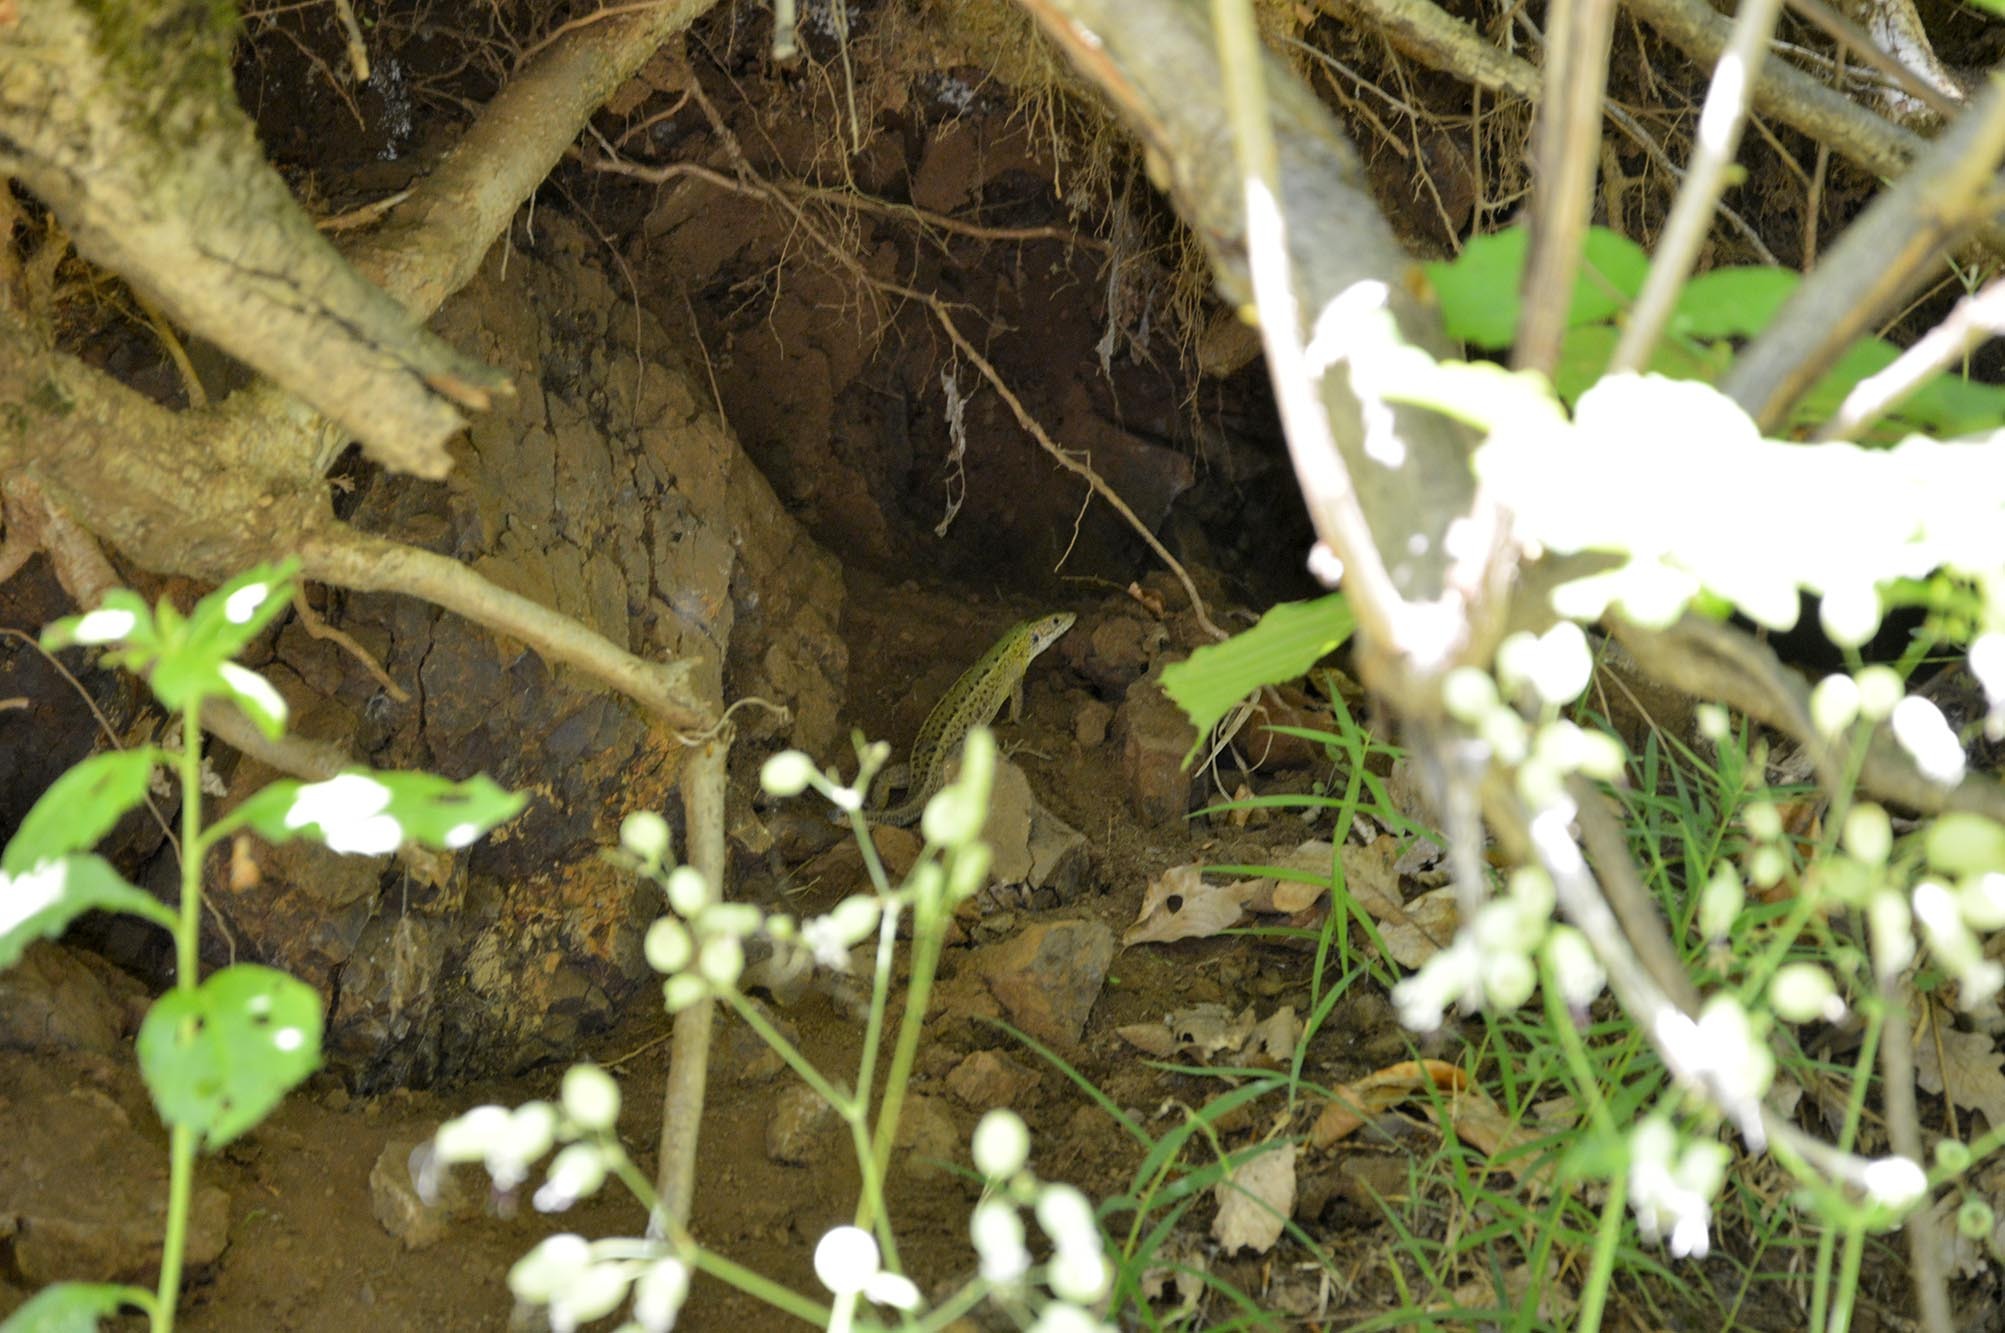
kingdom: Animalia
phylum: Chordata
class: Squamata
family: Lacertidae
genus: Lacerta
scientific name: Lacerta viridis
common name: European green lizard
